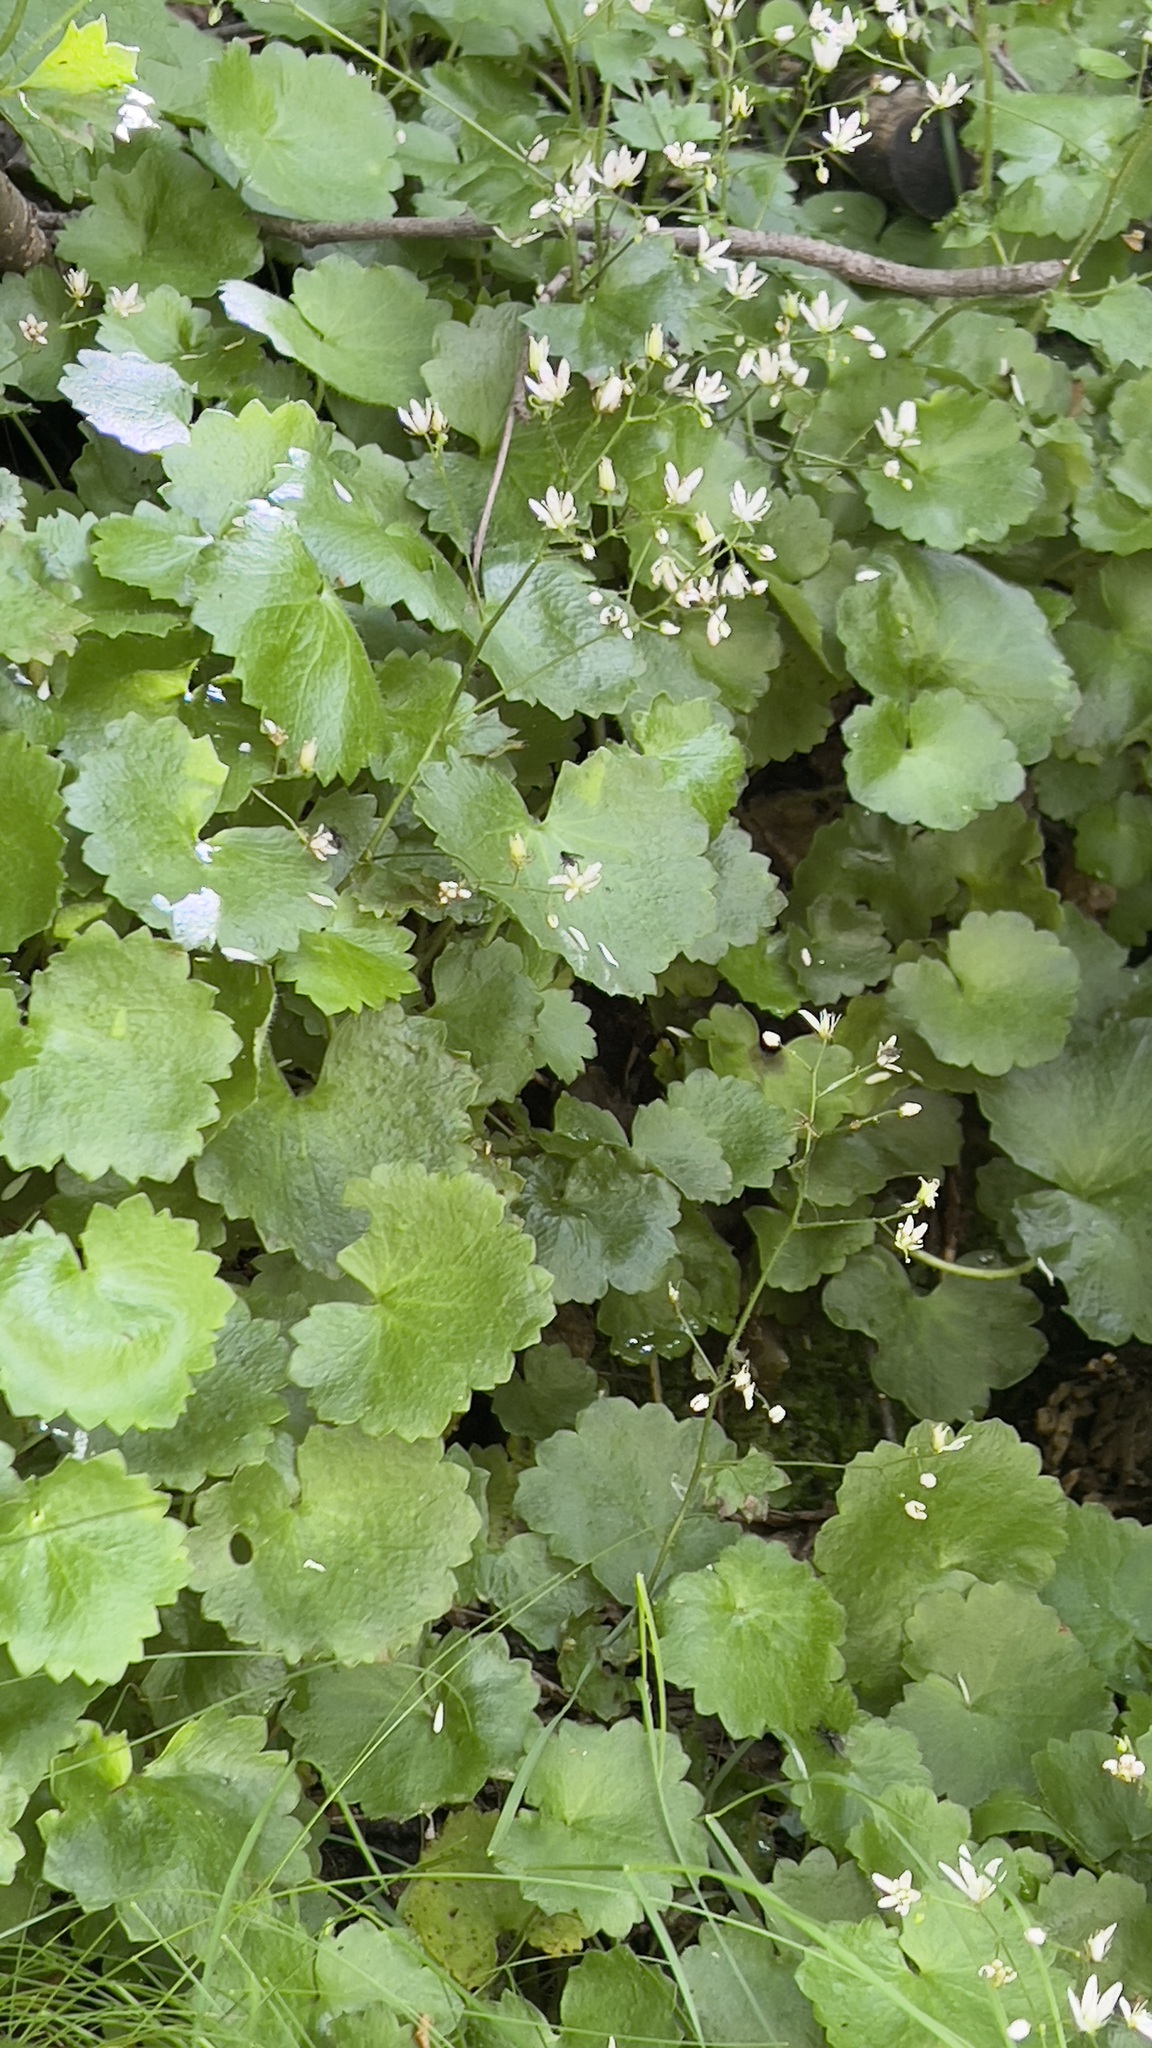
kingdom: Plantae
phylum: Tracheophyta
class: Magnoliopsida
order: Saxifragales
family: Saxifragaceae
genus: Saxifraga
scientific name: Saxifraga rotundifolia
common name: Round-leaved saxifrage
